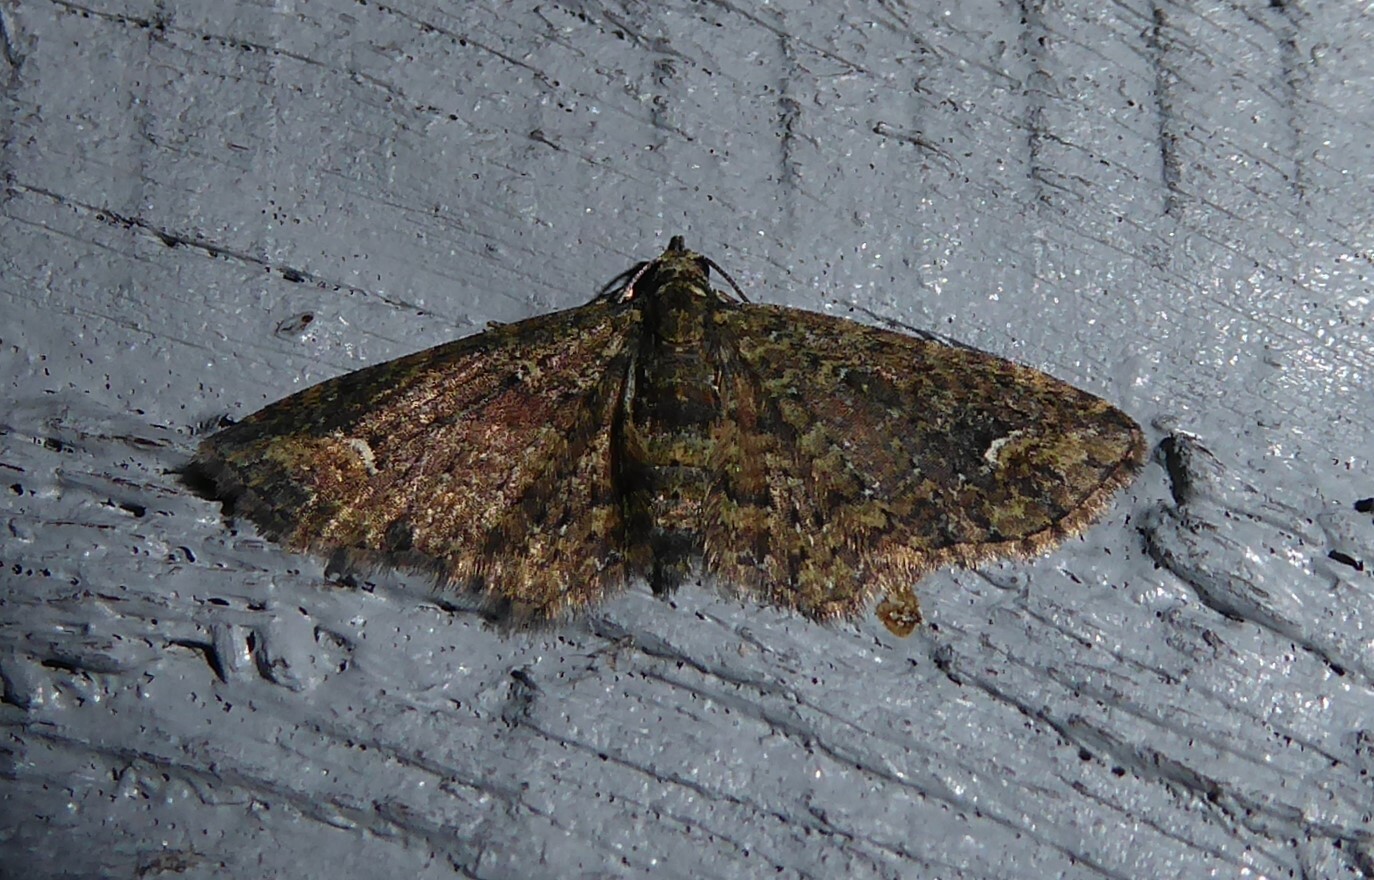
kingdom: Animalia
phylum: Arthropoda
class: Insecta
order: Lepidoptera
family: Geometridae
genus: Pasiphilodes
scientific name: Pasiphilodes testulata
